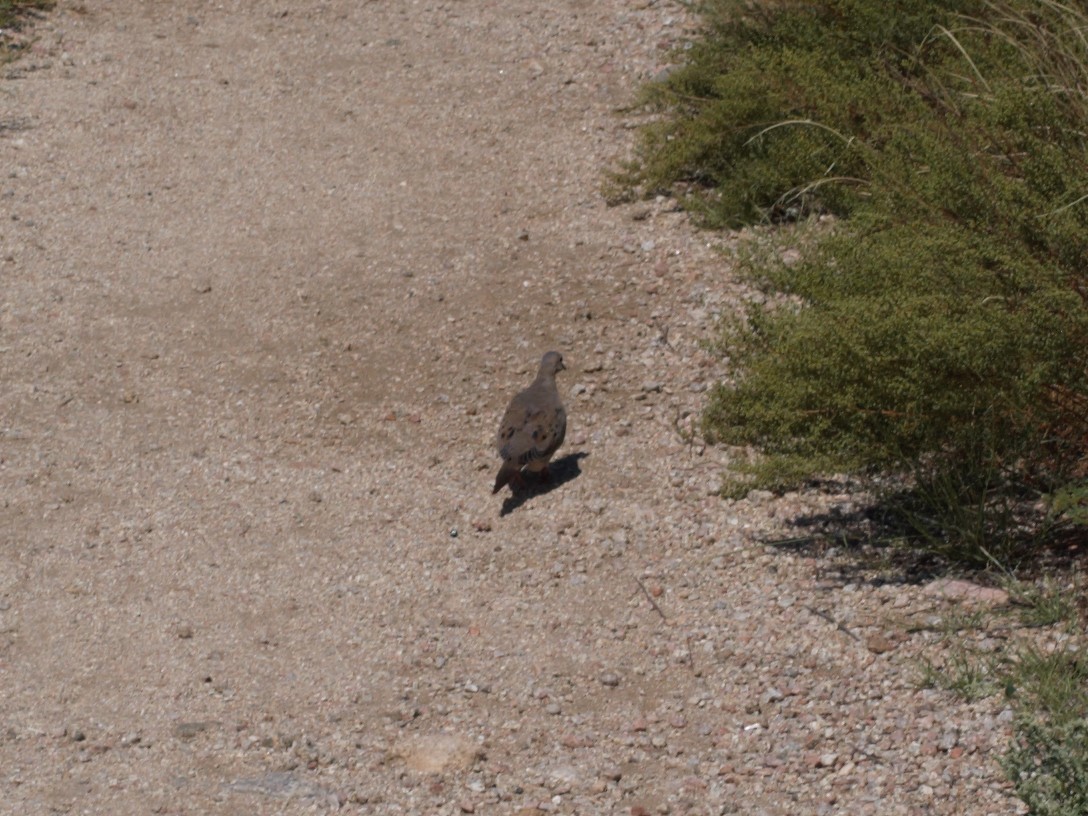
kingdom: Animalia
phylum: Chordata
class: Aves
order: Columbiformes
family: Columbidae
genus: Zenaida
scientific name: Zenaida macroura
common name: Mourning dove
